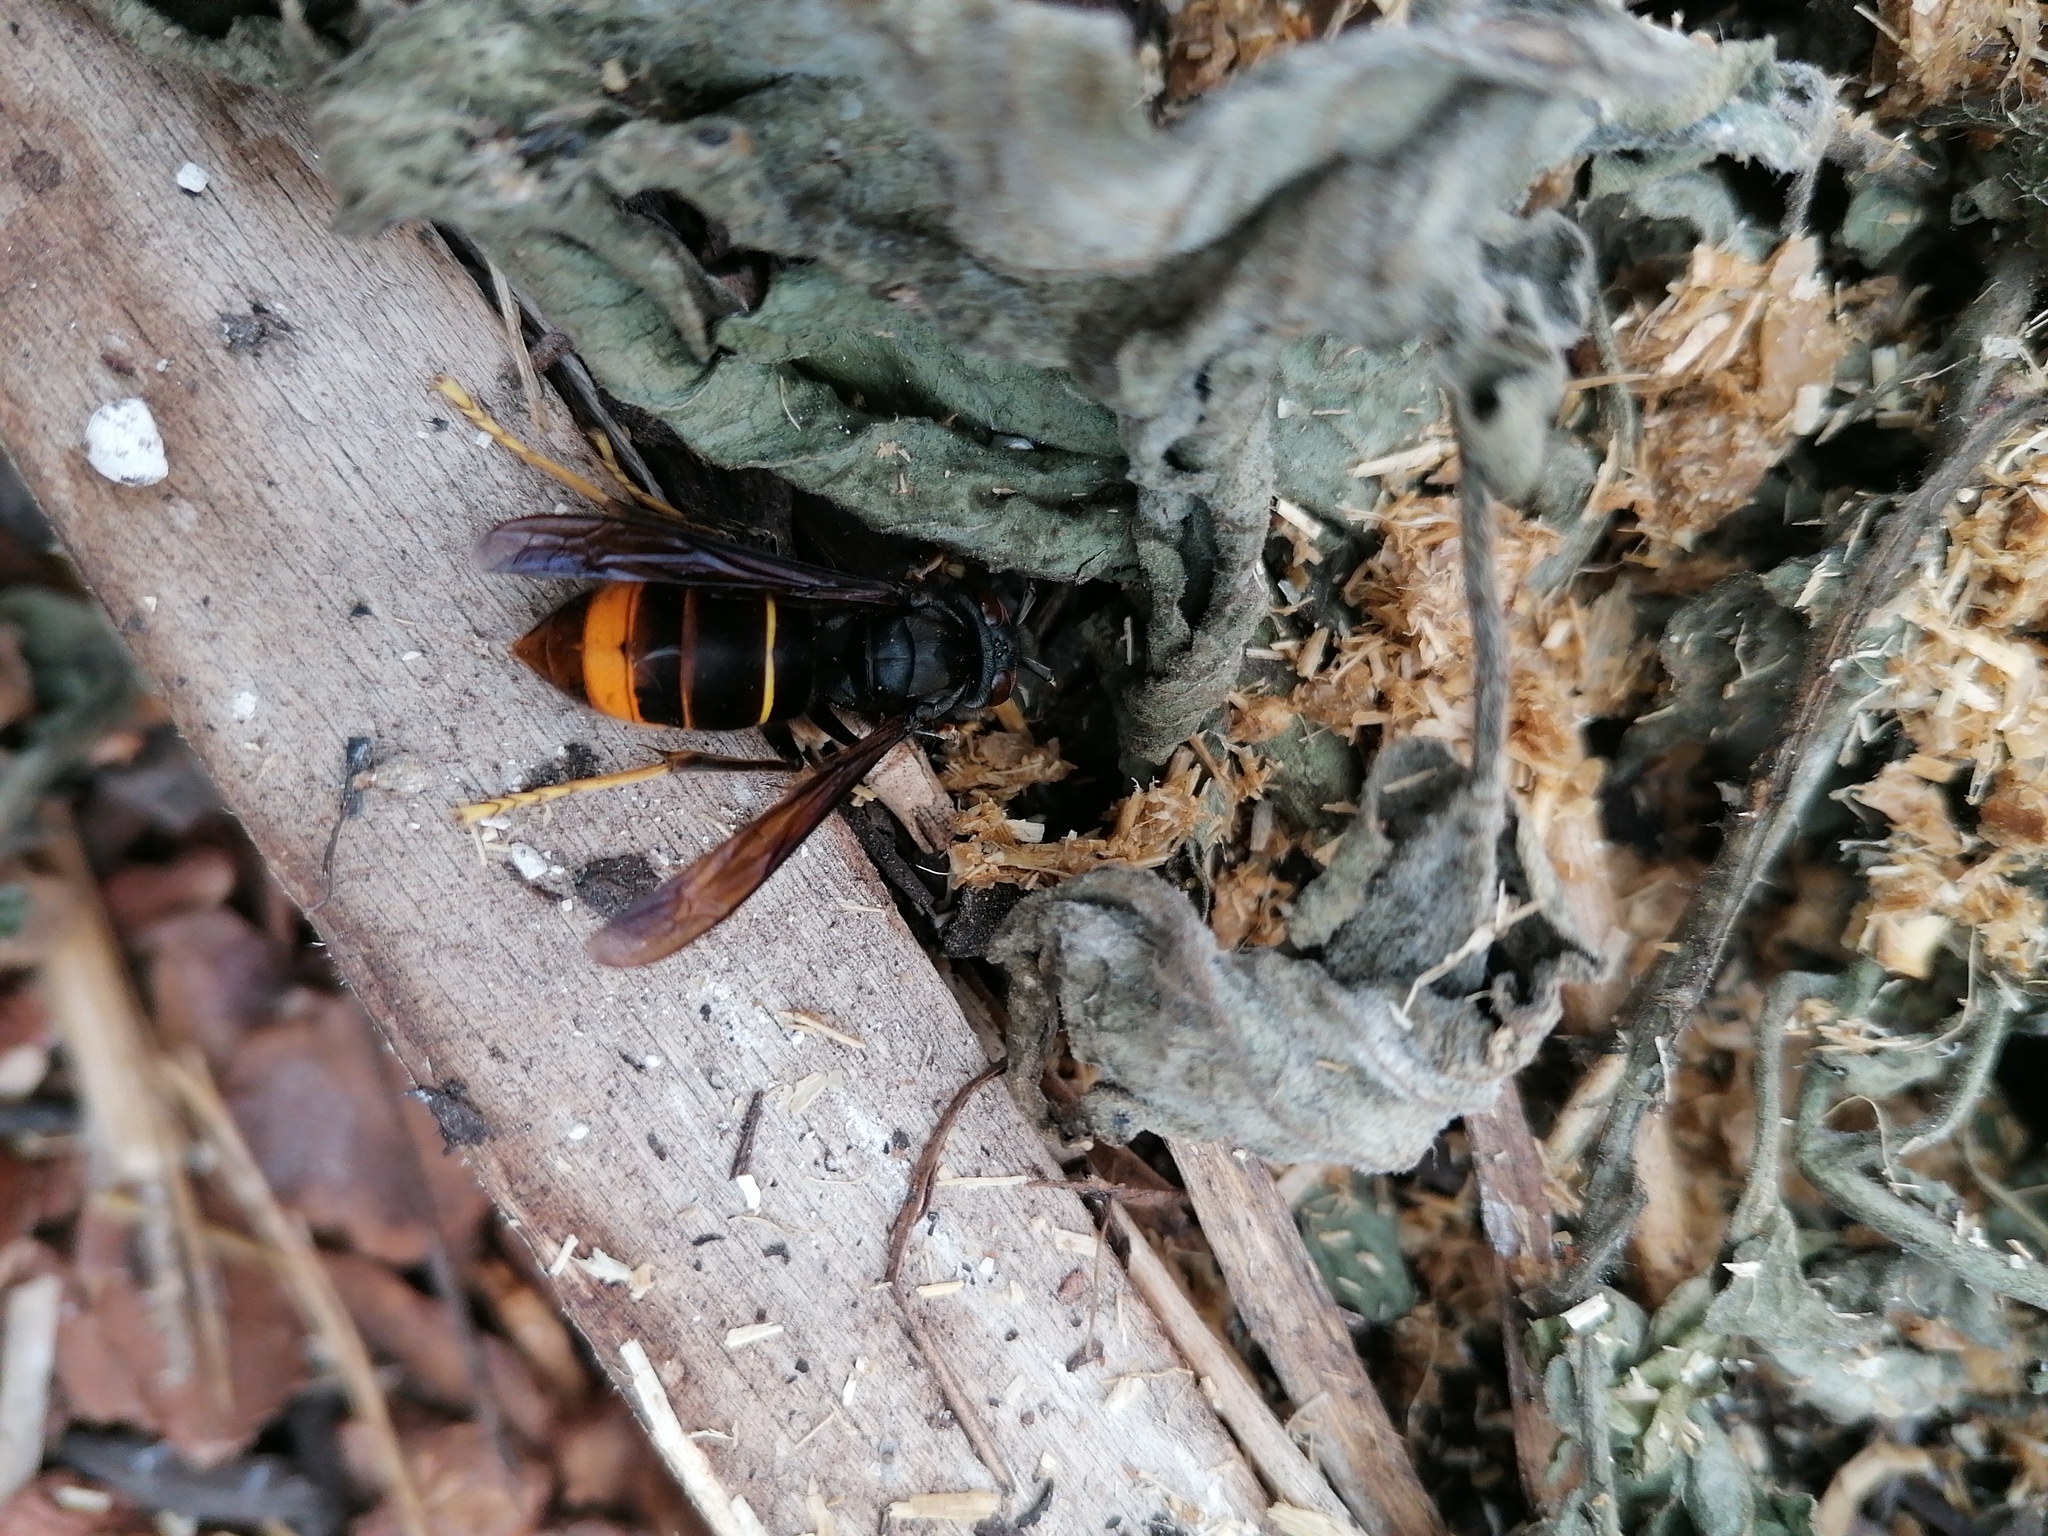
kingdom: Animalia
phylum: Arthropoda
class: Insecta
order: Hymenoptera
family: Vespidae
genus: Vespa
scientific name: Vespa velutina
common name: Asian hornet
